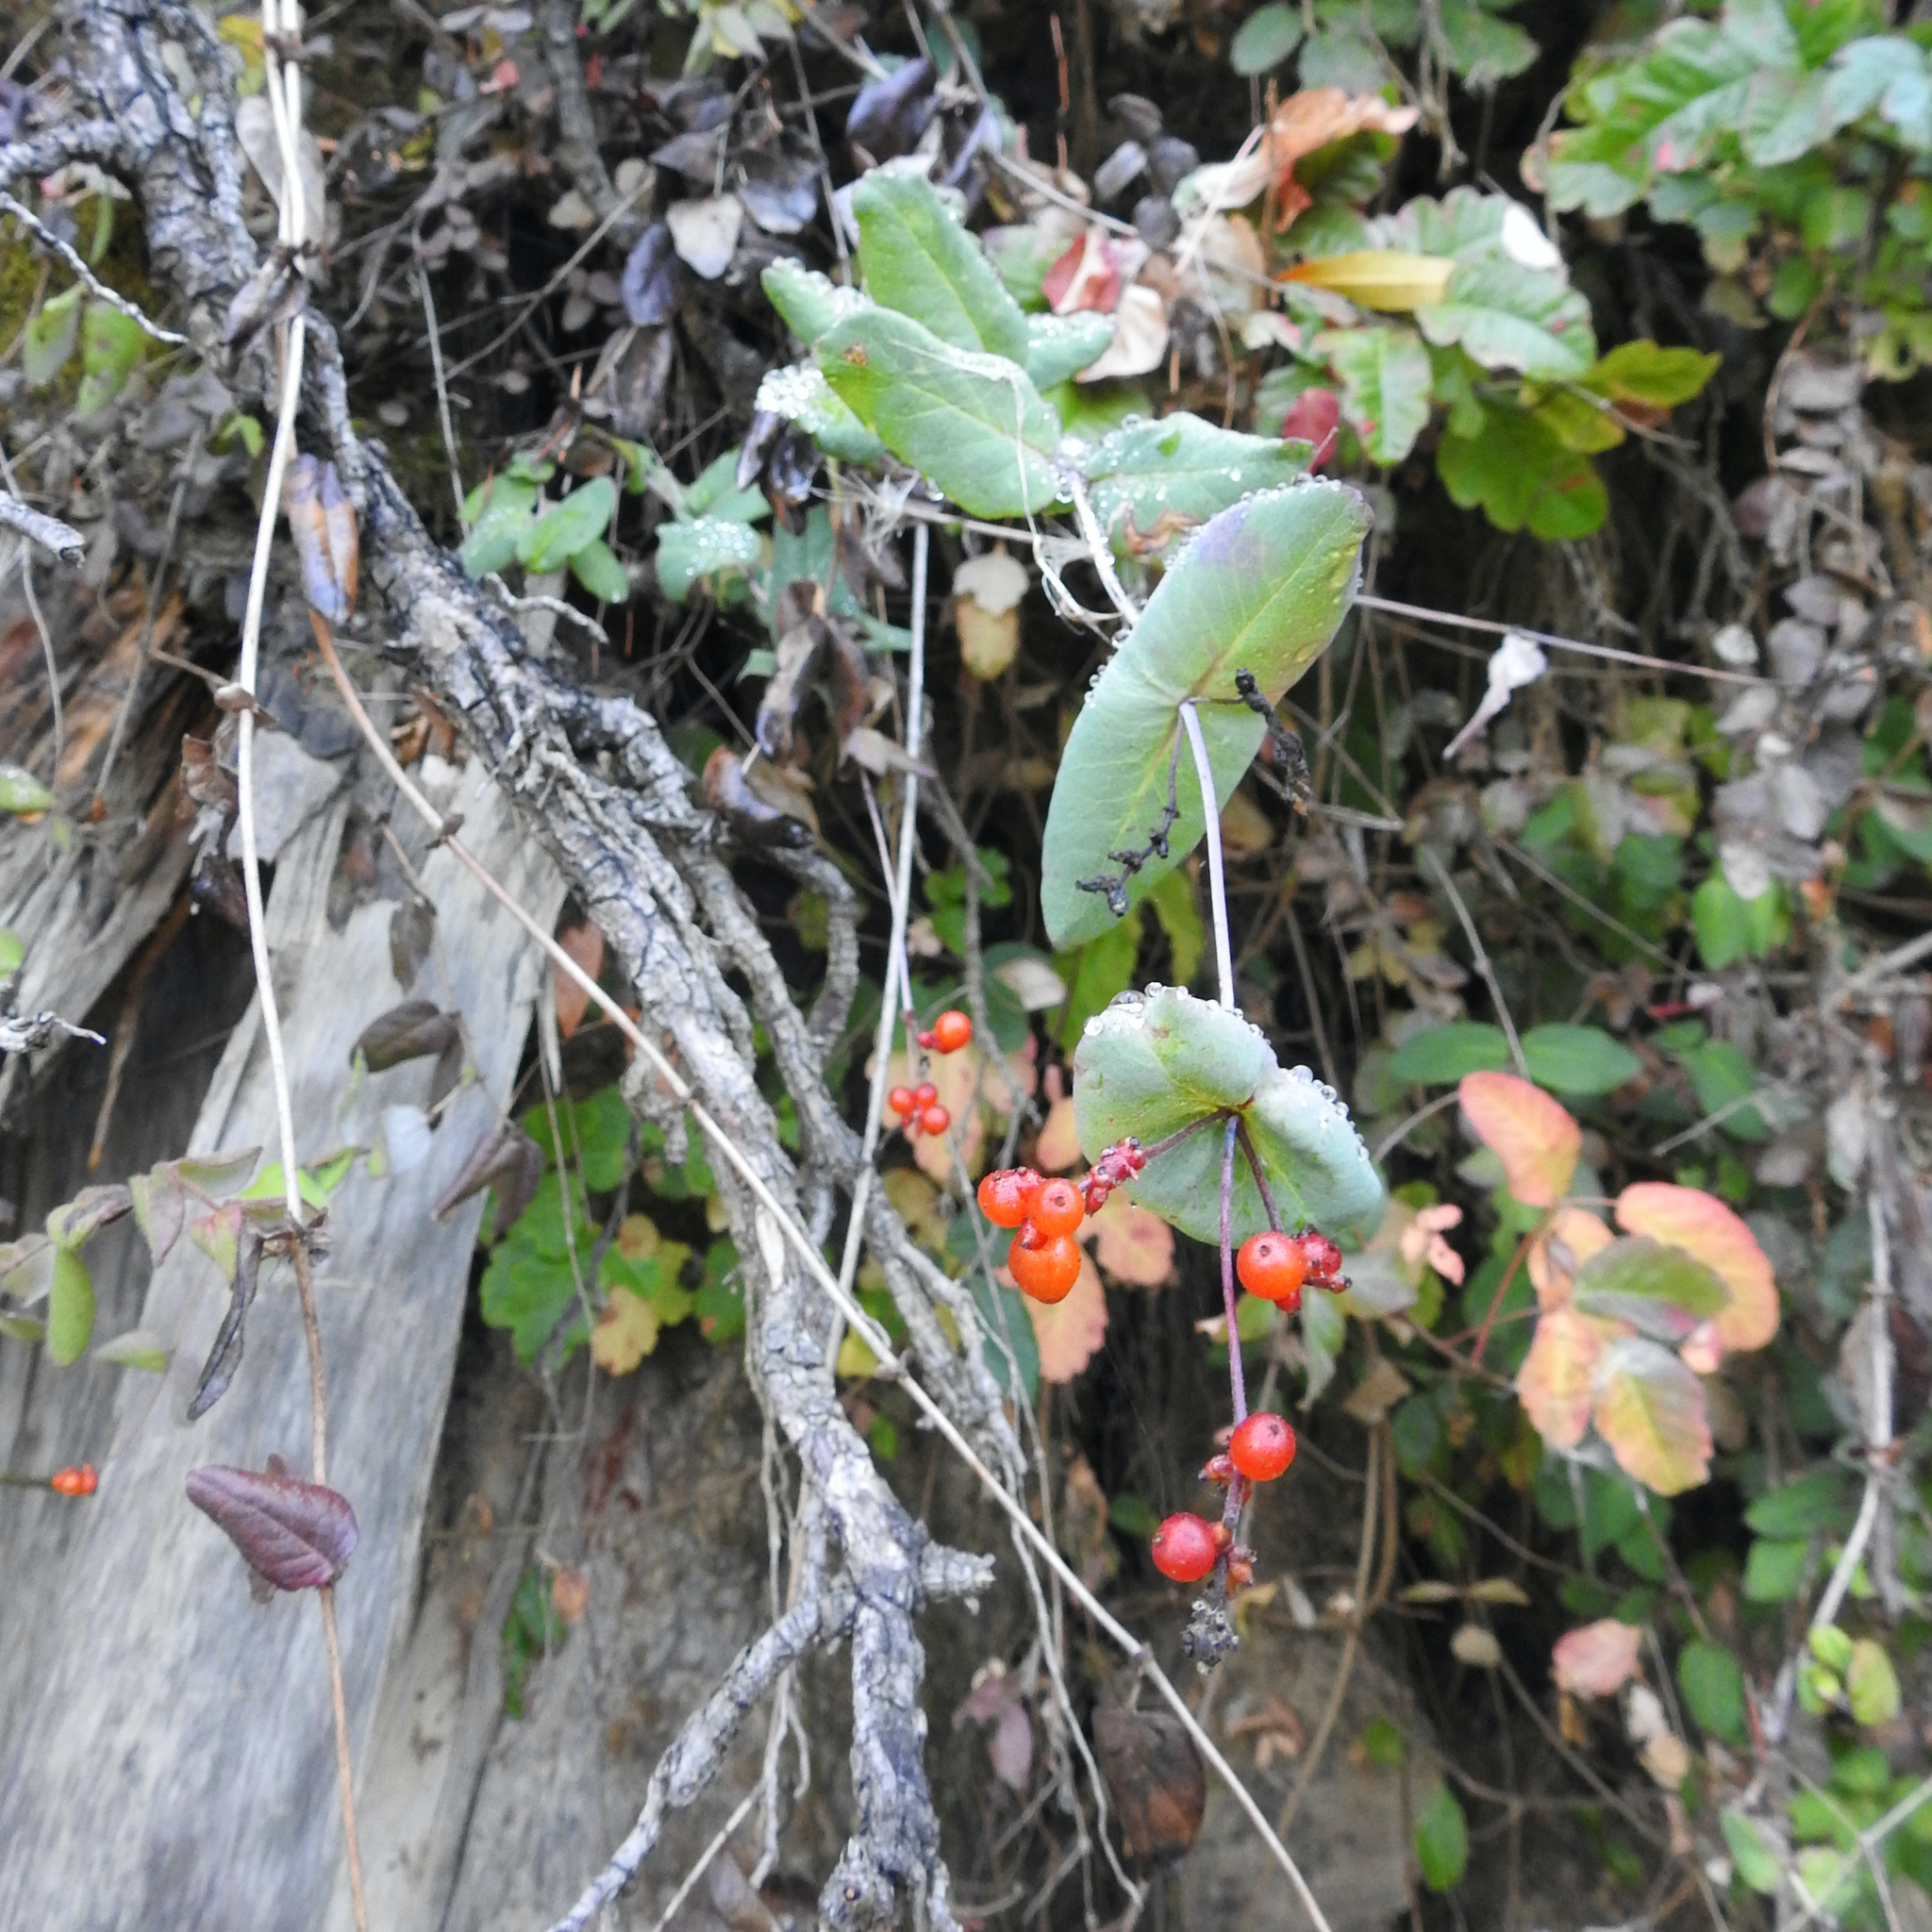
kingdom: Plantae
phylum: Tracheophyta
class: Magnoliopsida
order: Dipsacales
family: Caprifoliaceae
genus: Lonicera
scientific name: Lonicera hispidula
